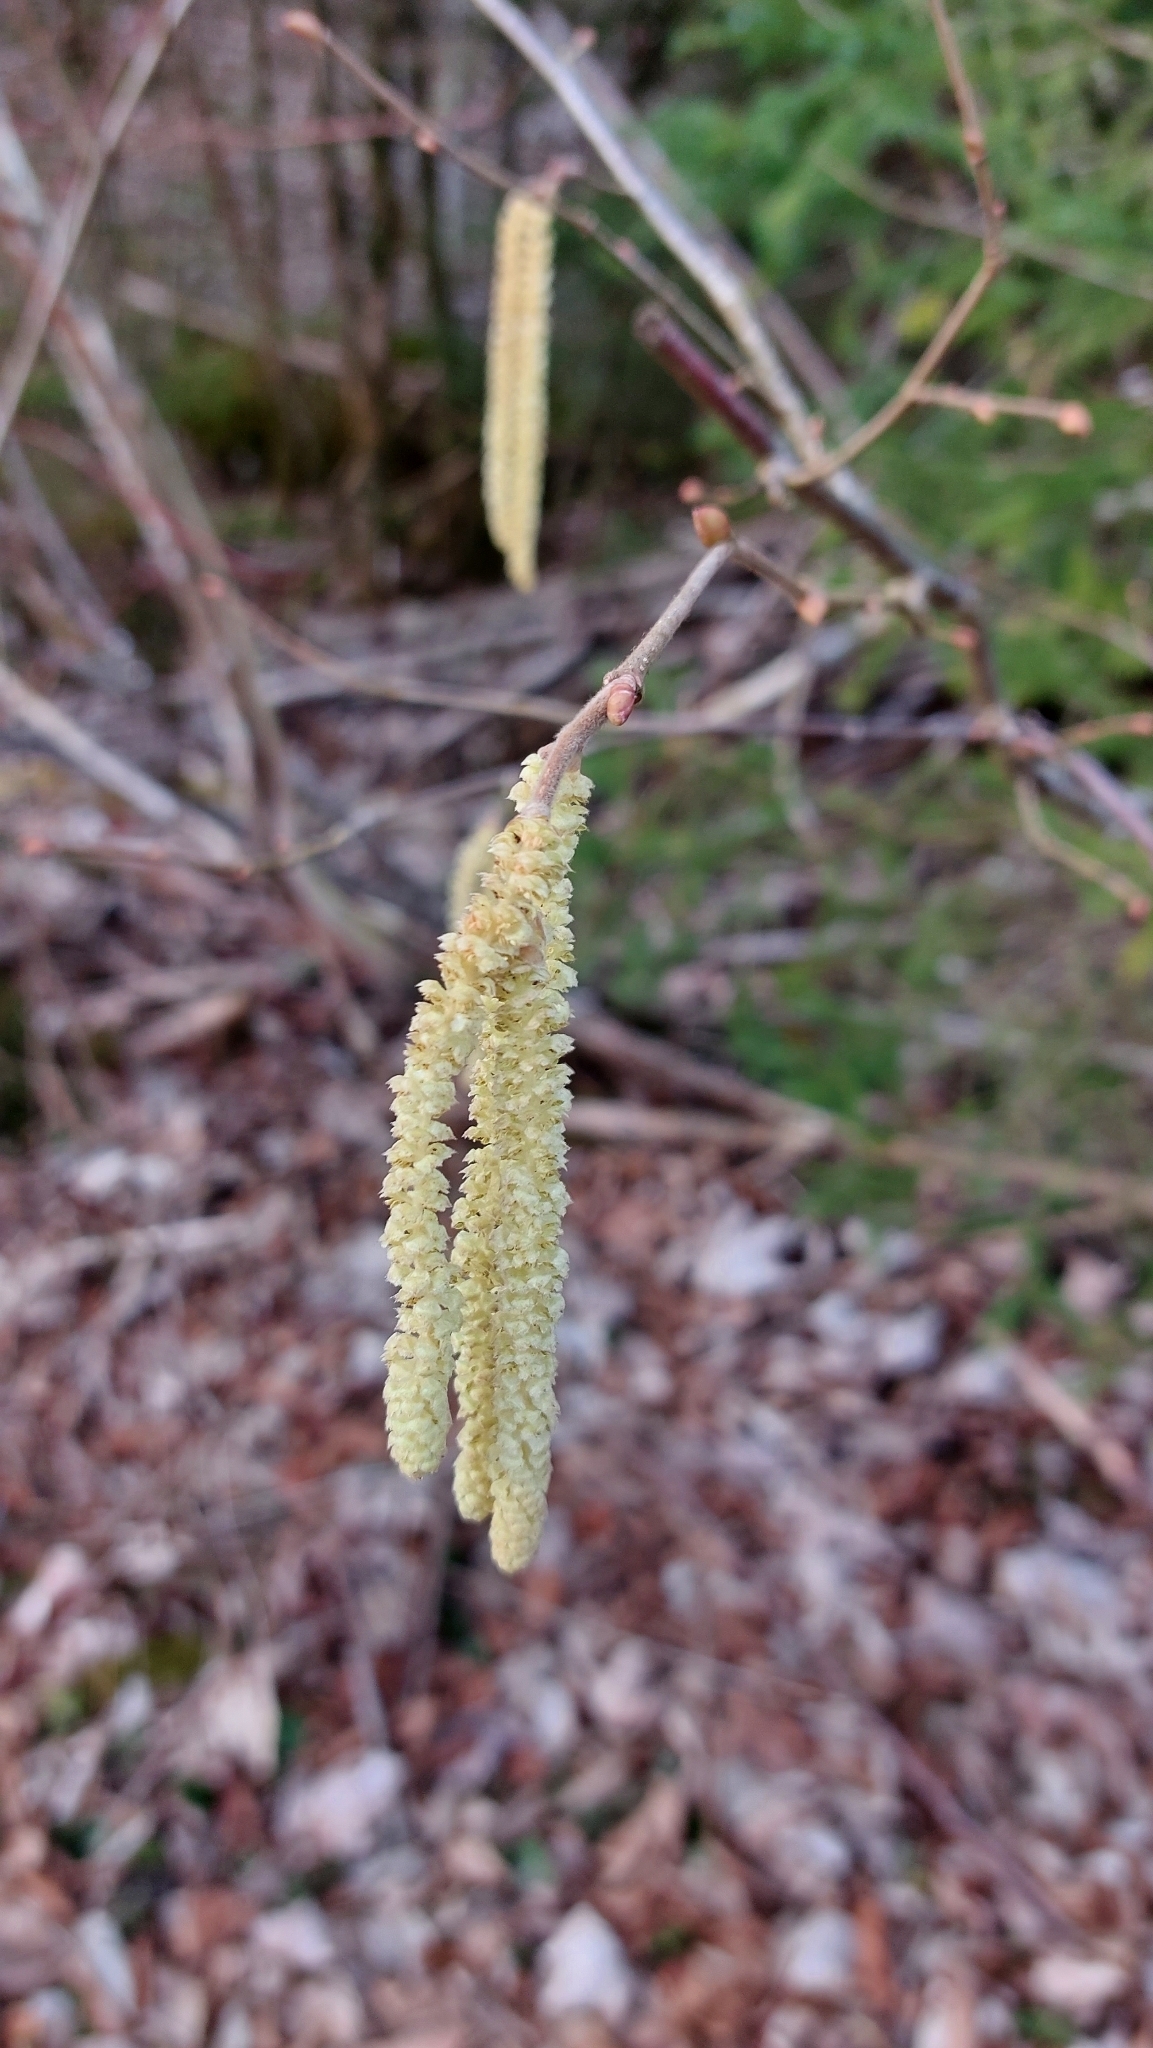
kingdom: Plantae
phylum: Tracheophyta
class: Magnoliopsida
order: Fagales
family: Betulaceae
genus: Corylus
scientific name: Corylus avellana
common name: European hazel
